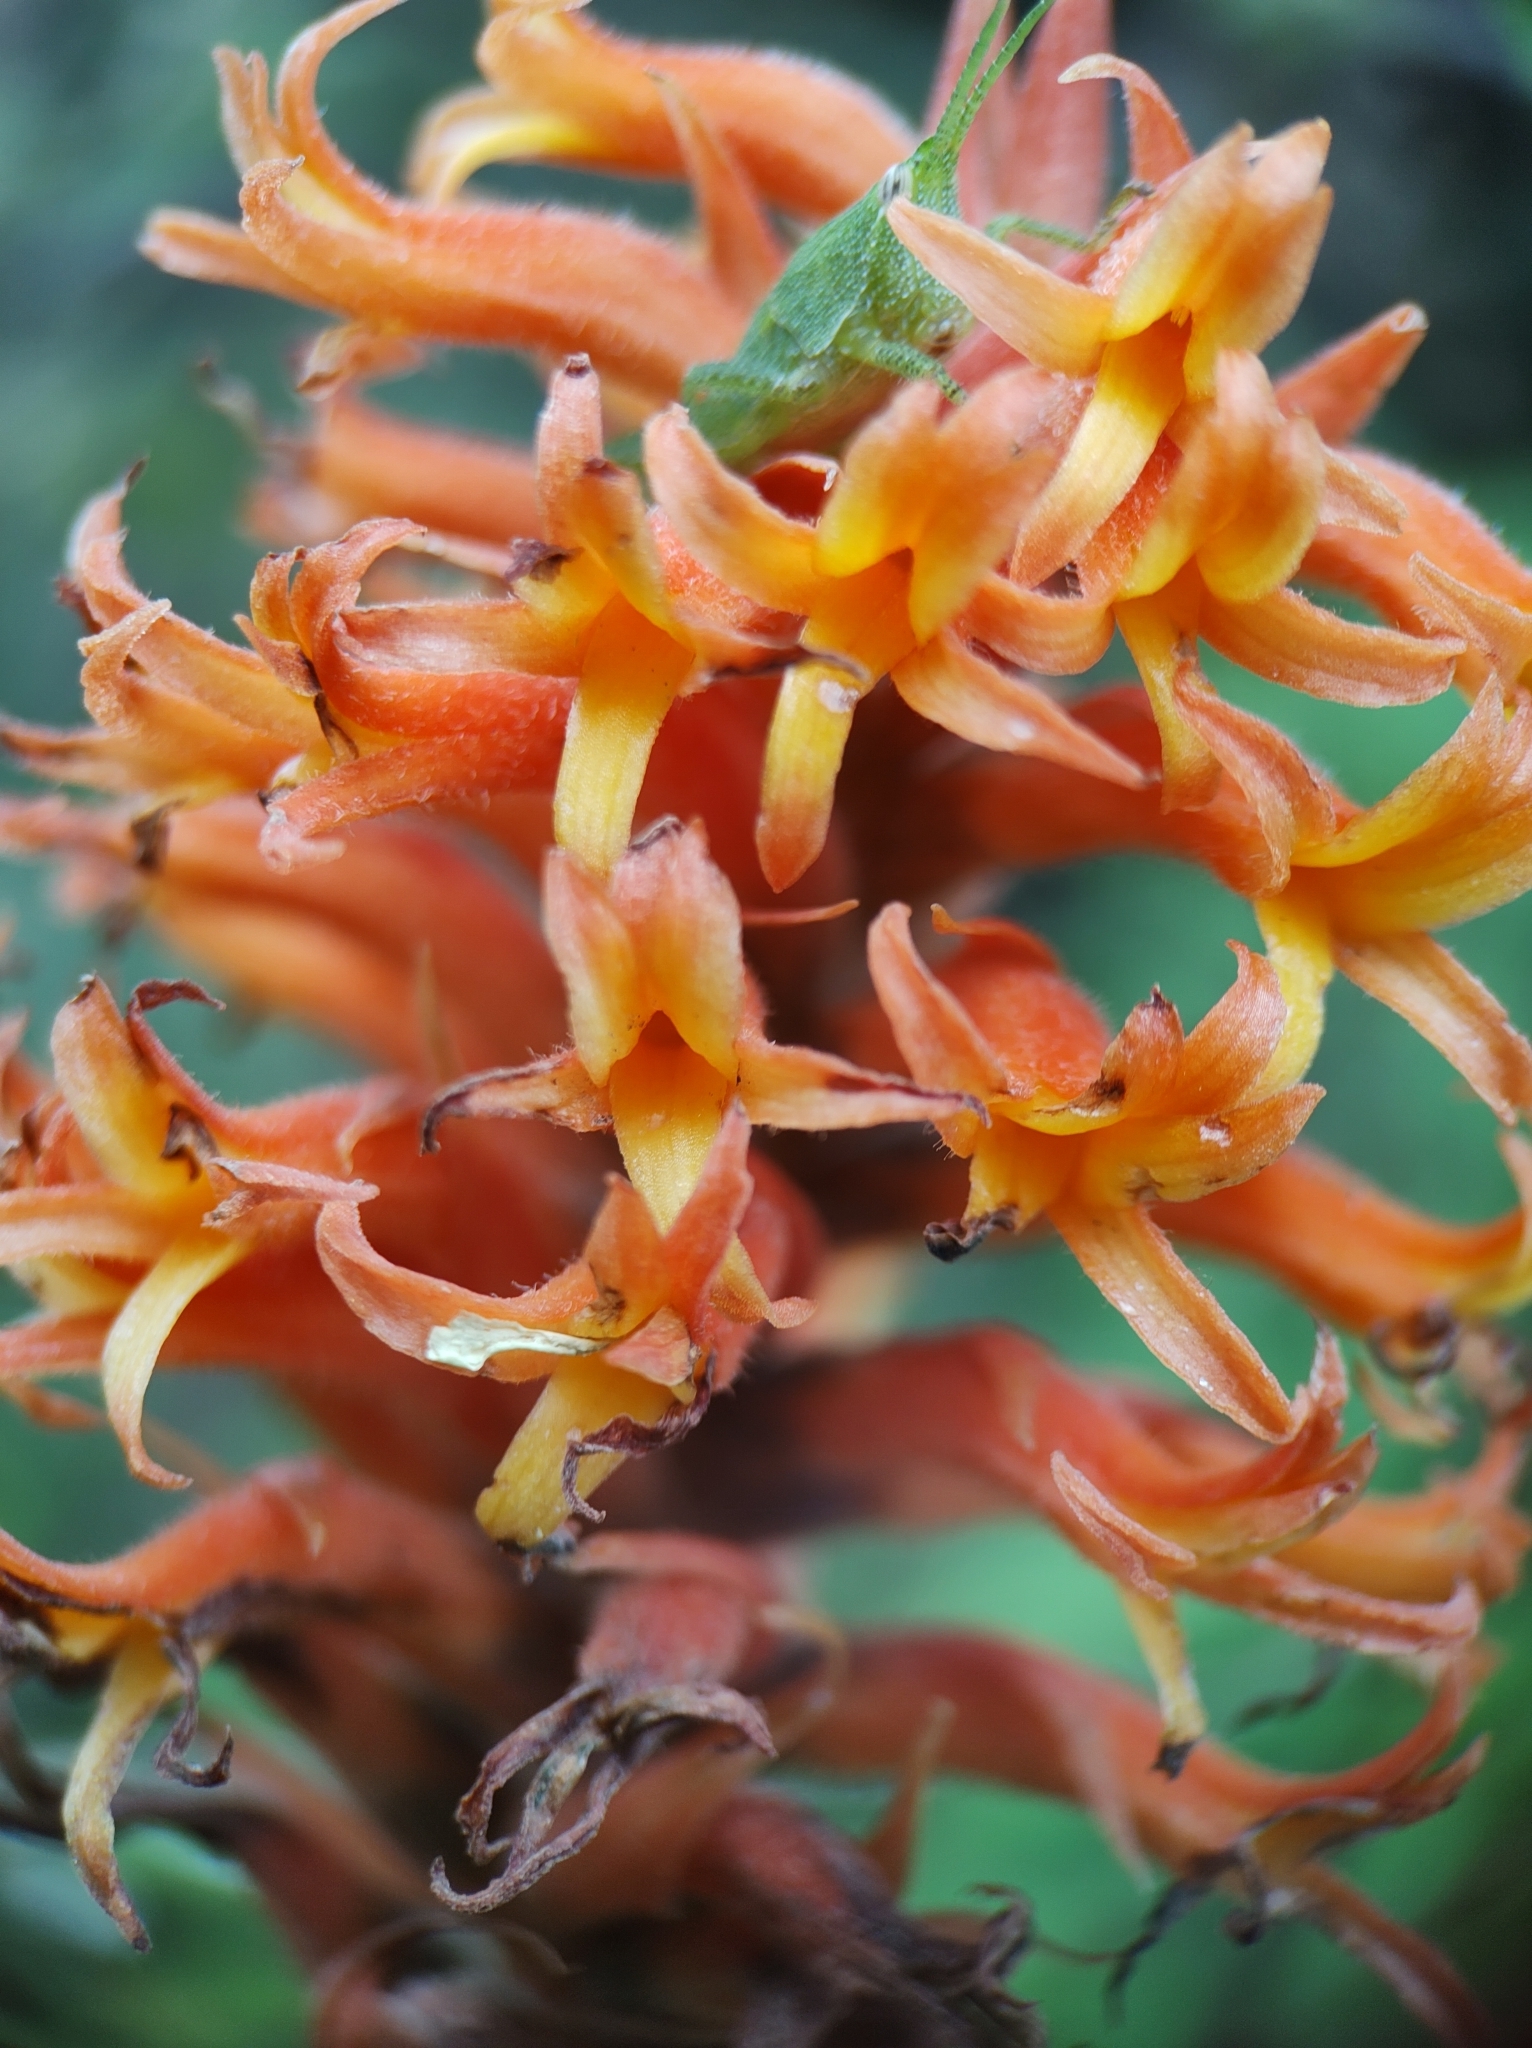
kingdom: Plantae
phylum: Tracheophyta
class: Liliopsida
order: Asparagales
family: Orchidaceae
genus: Dichromanthus
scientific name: Dichromanthus cinnabarinus
